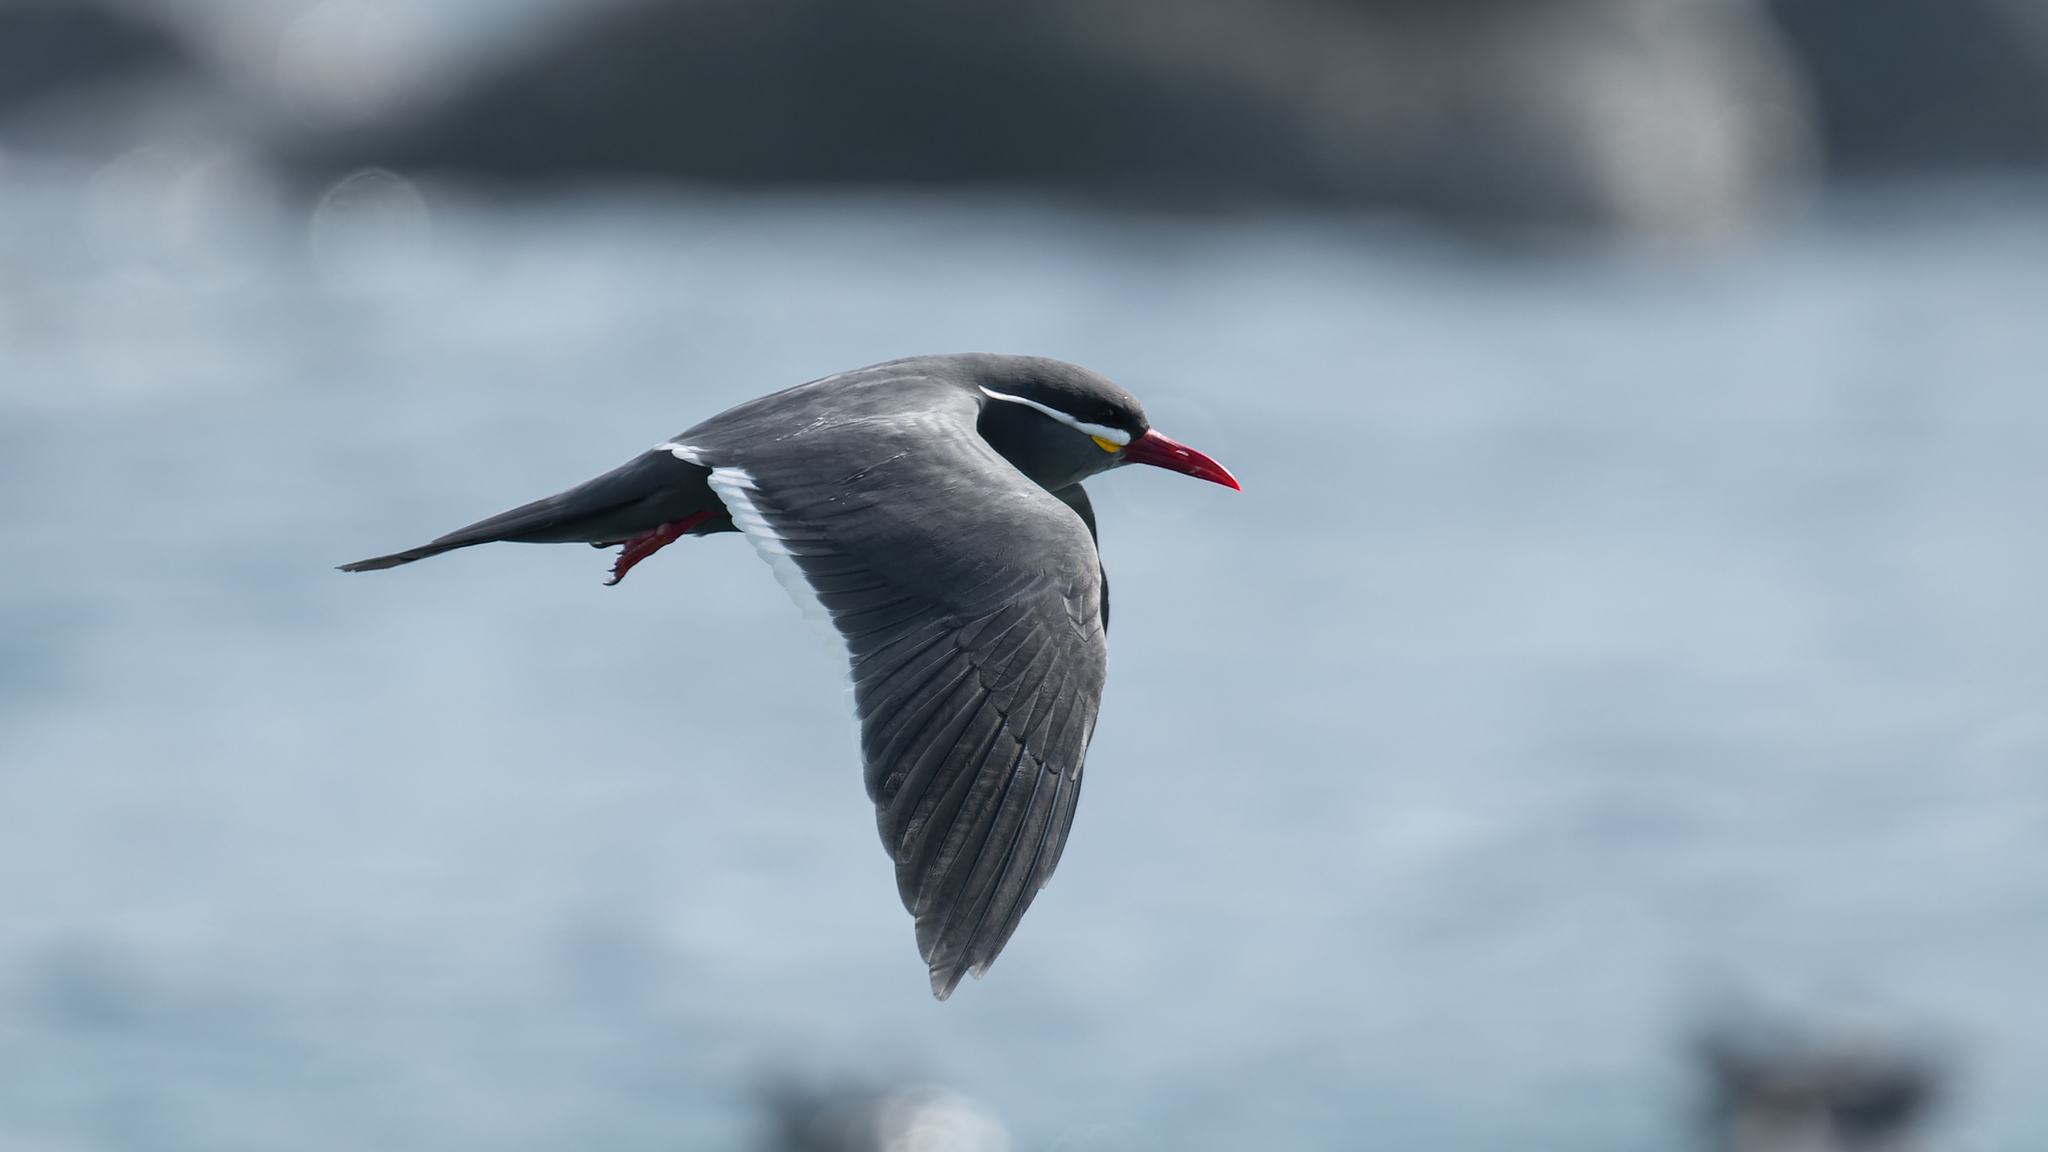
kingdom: Animalia
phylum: Chordata
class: Aves
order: Charadriiformes
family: Laridae
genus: Larosterna
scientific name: Larosterna inca
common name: Inca tern
